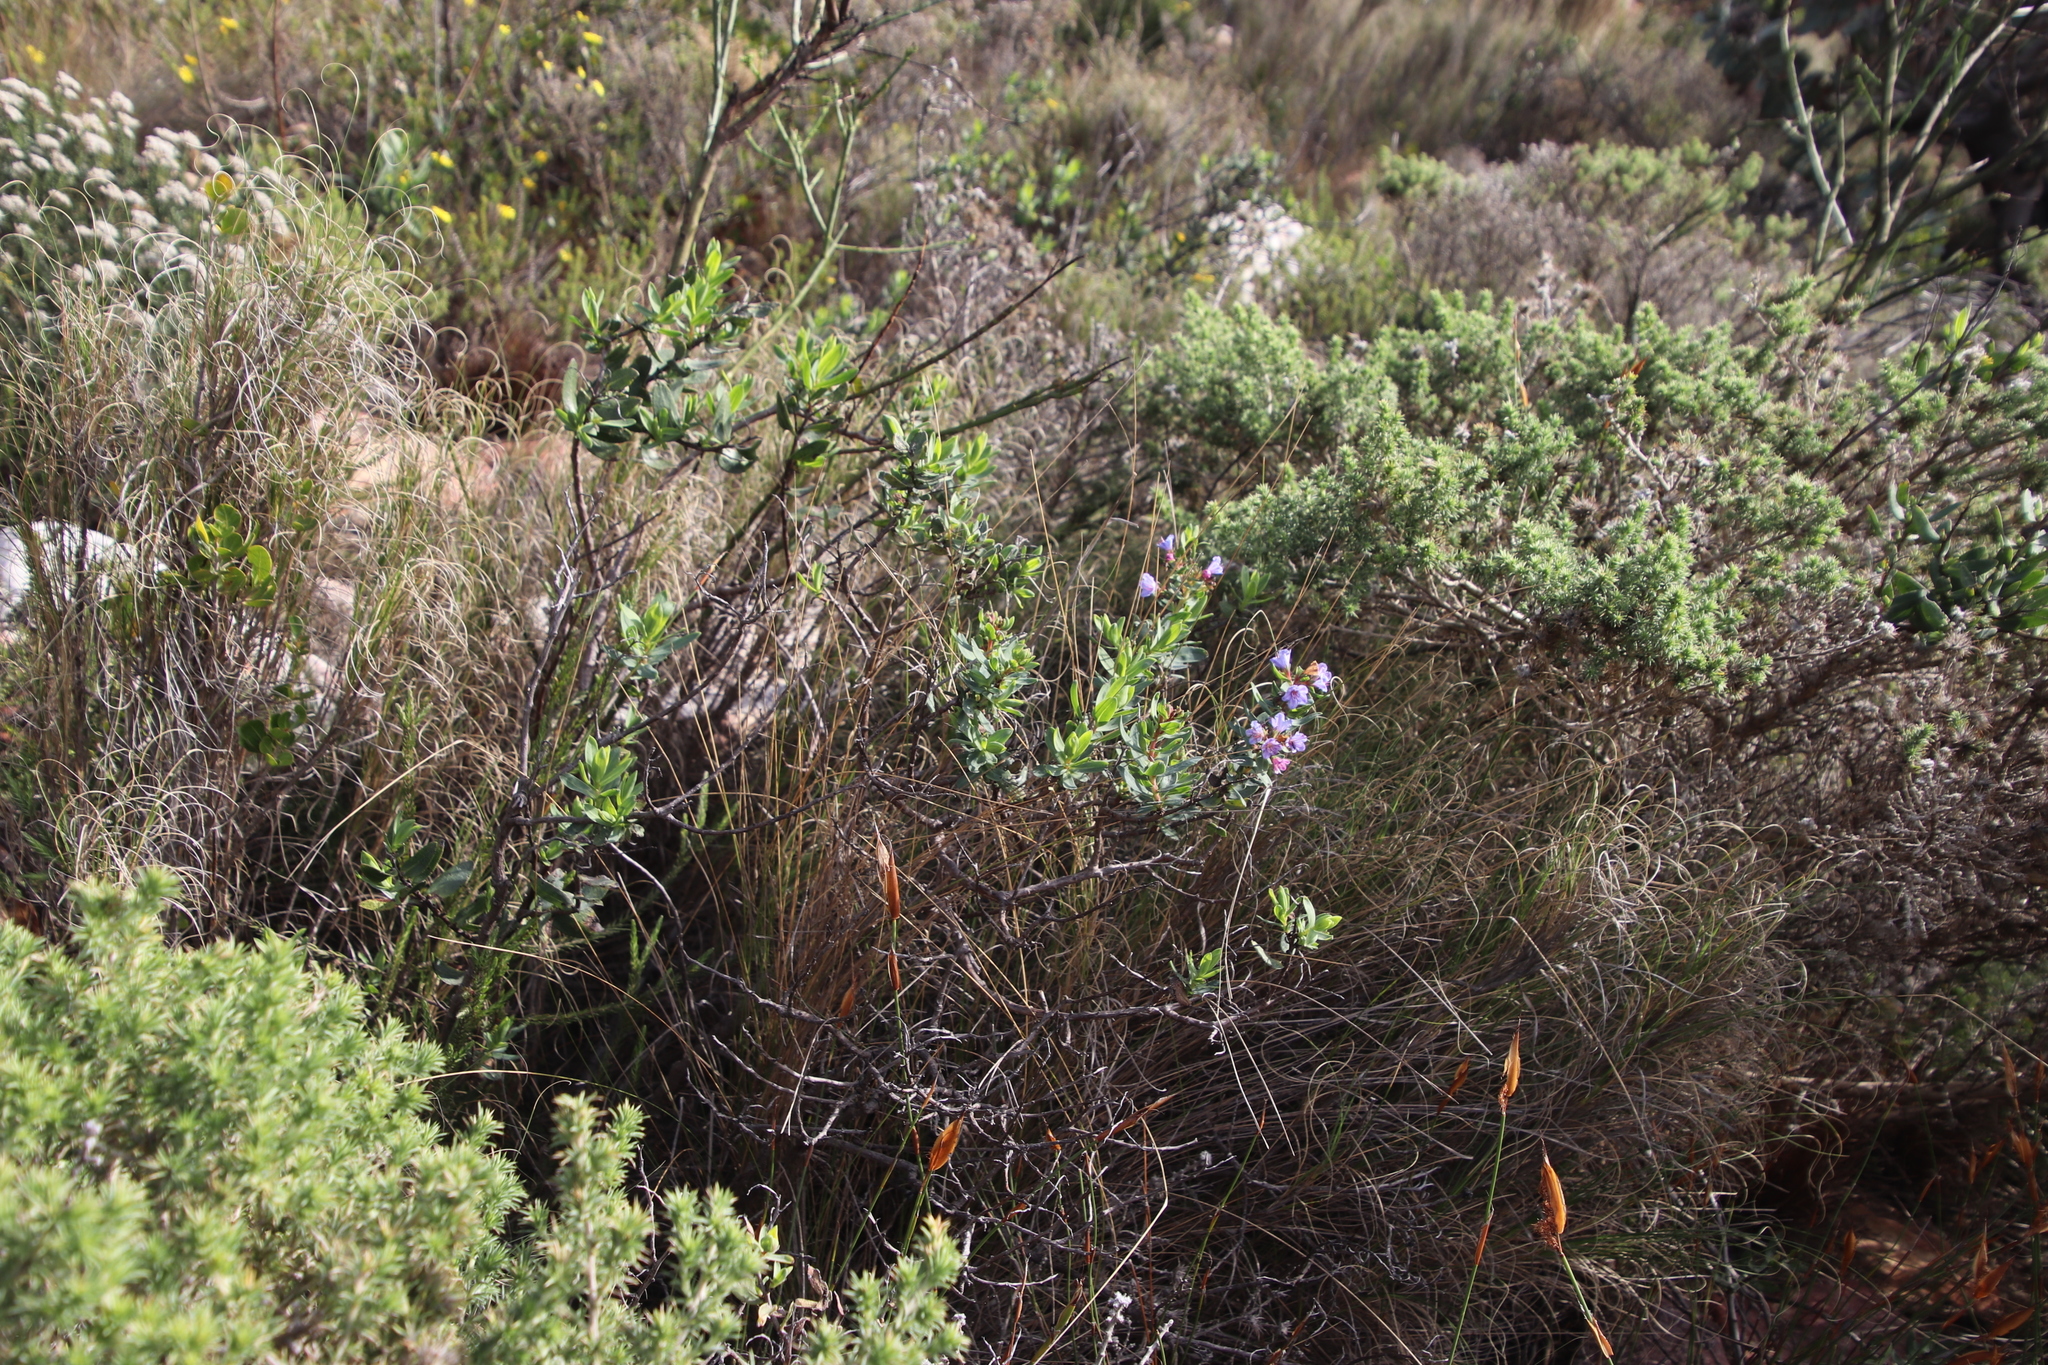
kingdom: Plantae
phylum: Tracheophyta
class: Magnoliopsida
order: Boraginales
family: Boraginaceae
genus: Lobostemon
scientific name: Lobostemon glaucophyllus
